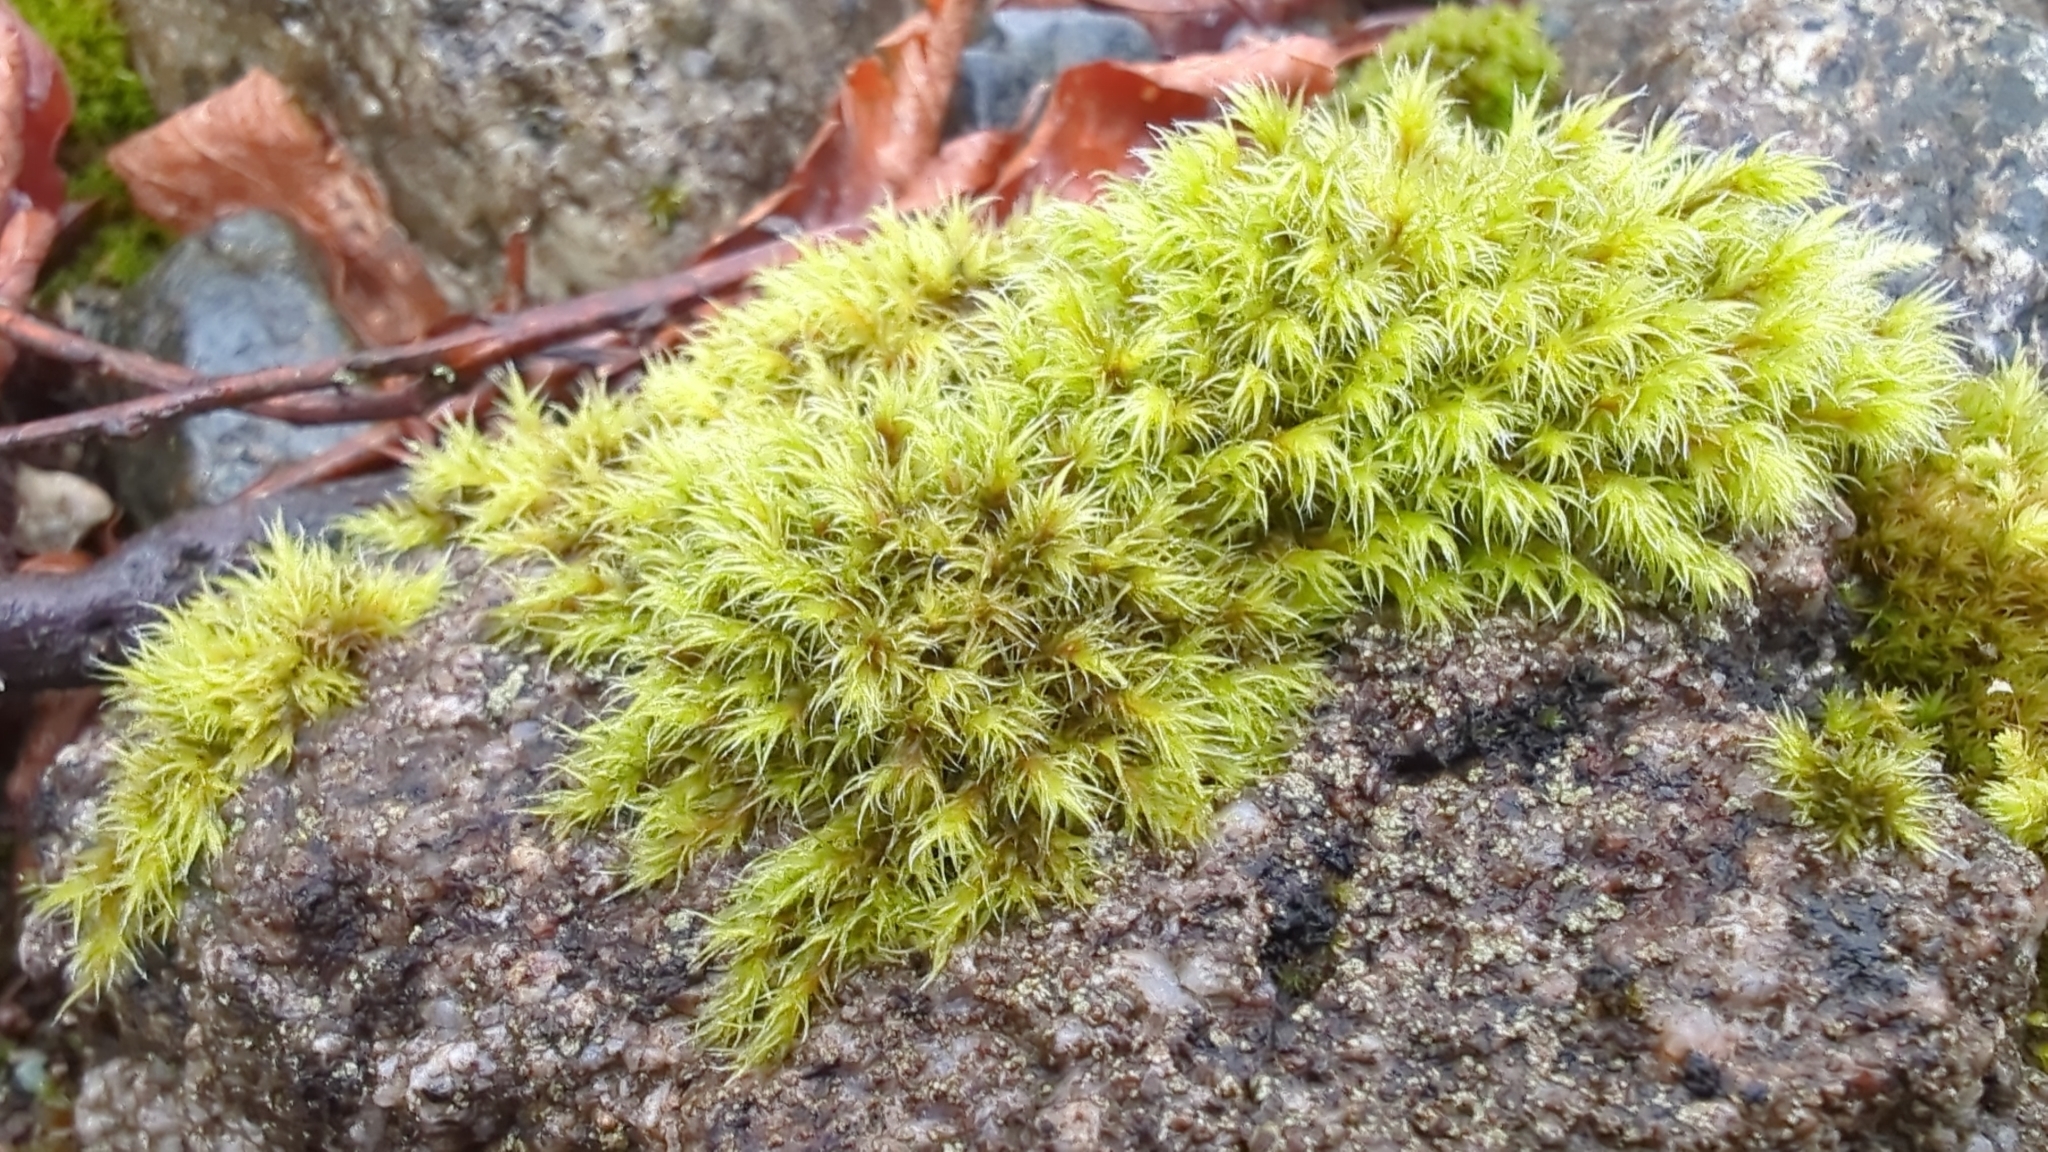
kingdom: Plantae
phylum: Bryophyta
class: Bryopsida
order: Grimmiales
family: Grimmiaceae
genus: Bucklandiella
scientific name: Bucklandiella heterosticha
